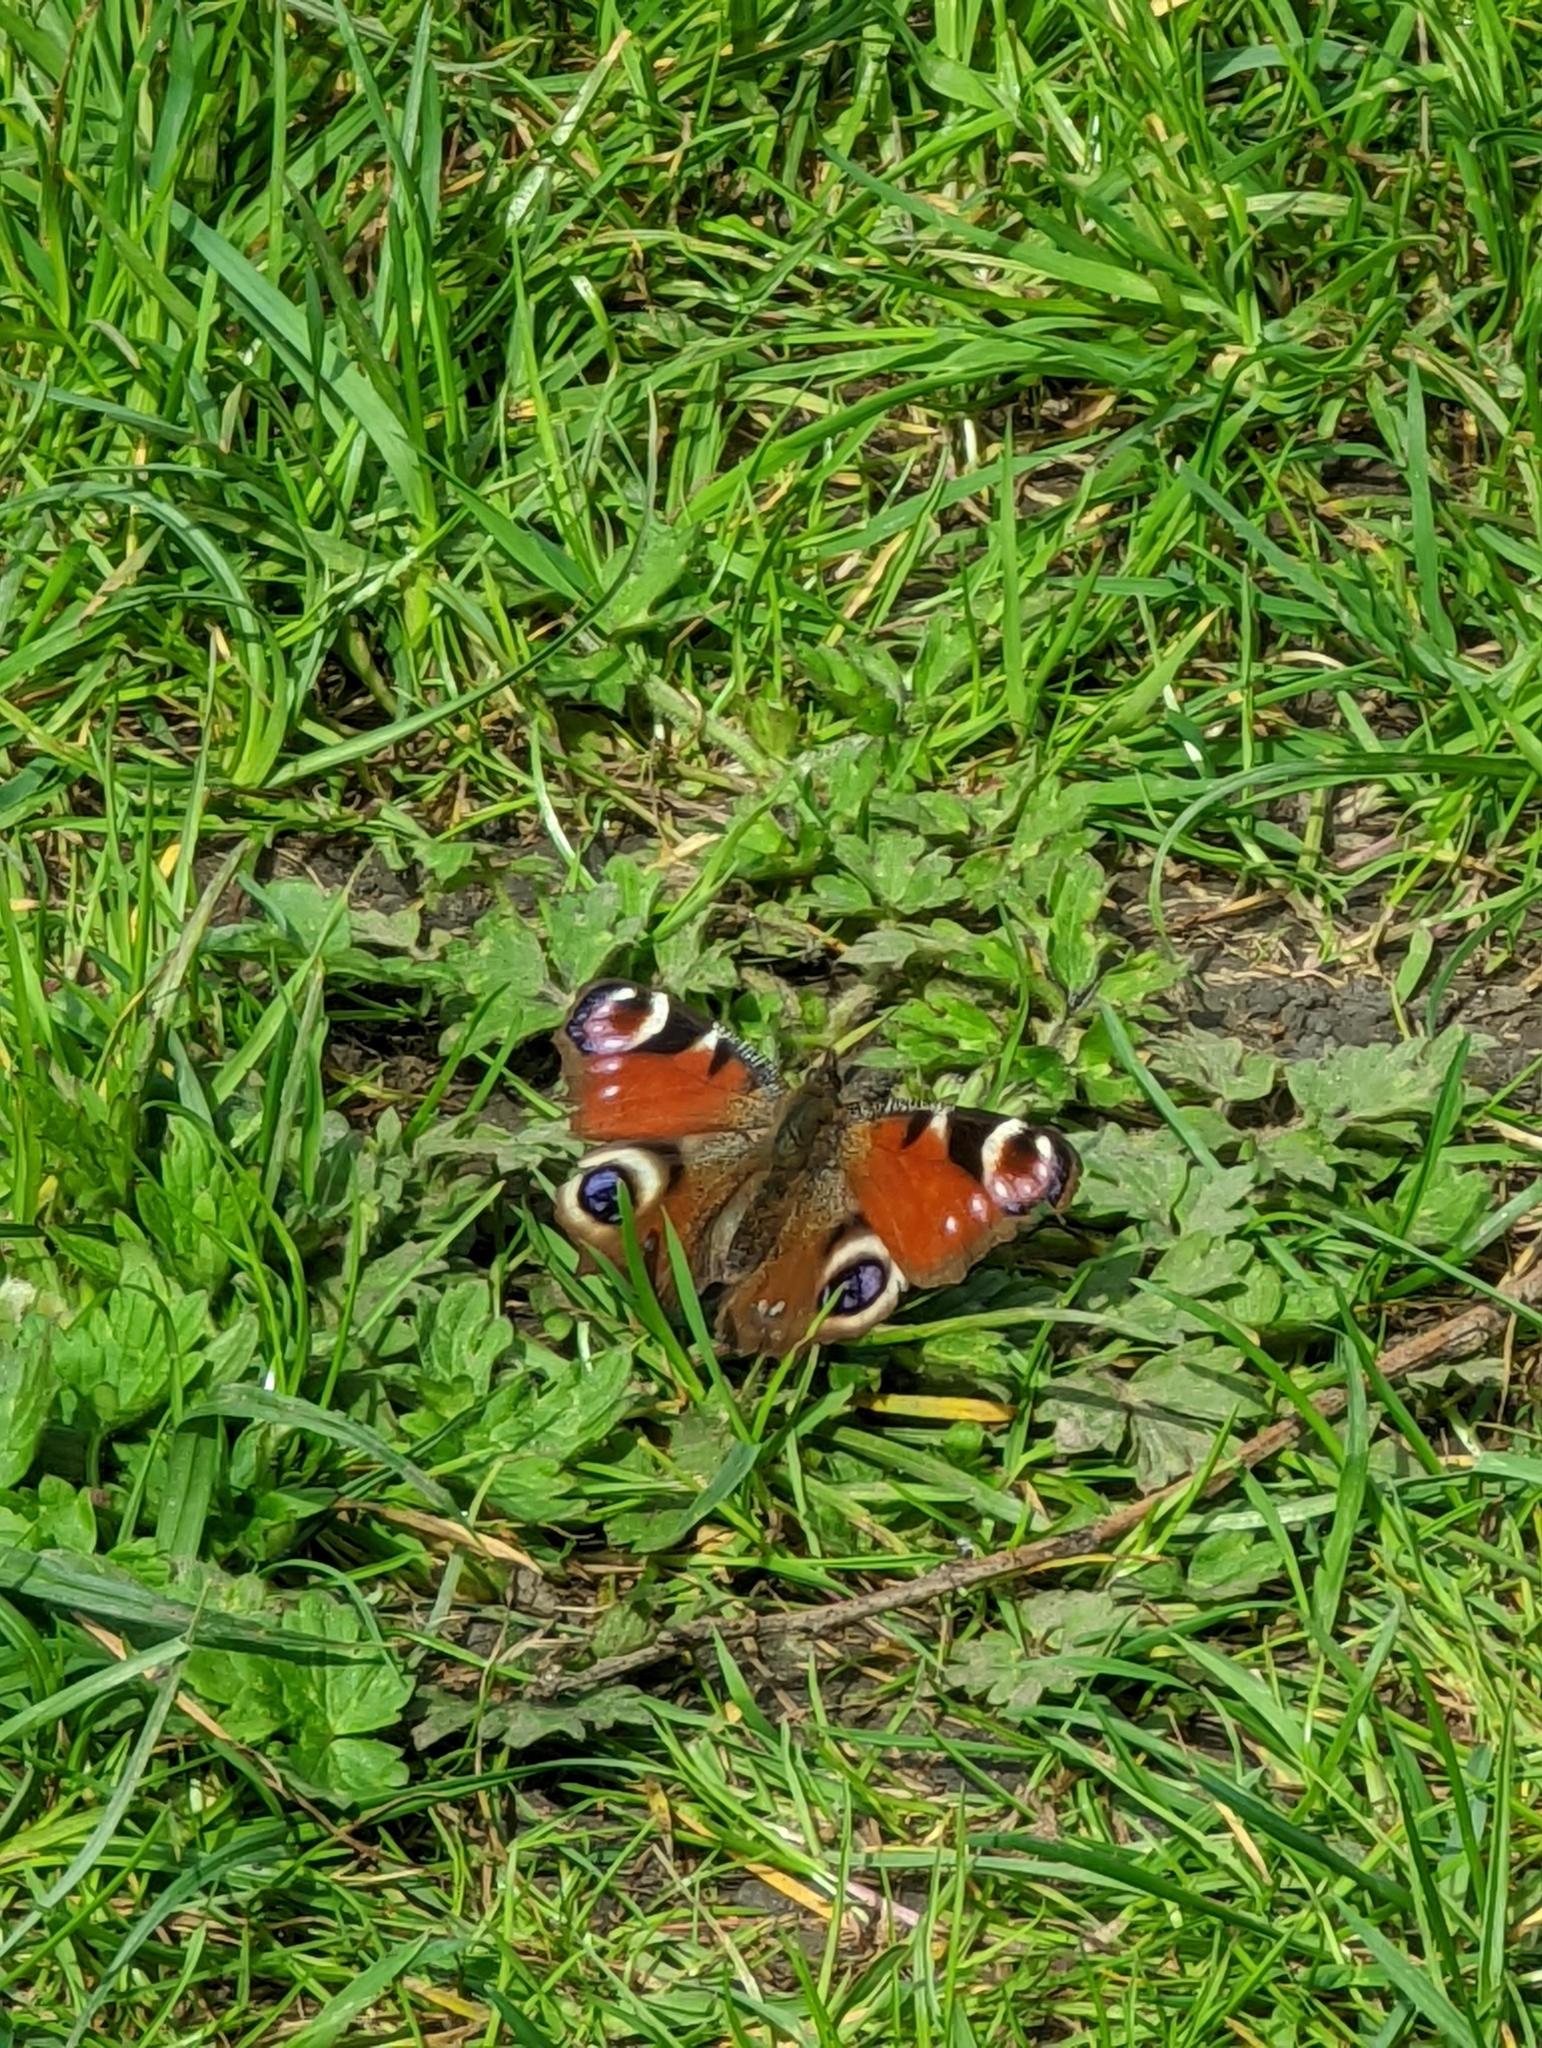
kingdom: Animalia
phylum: Arthropoda
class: Insecta
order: Lepidoptera
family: Nymphalidae
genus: Aglais
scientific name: Aglais io
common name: Peacock
